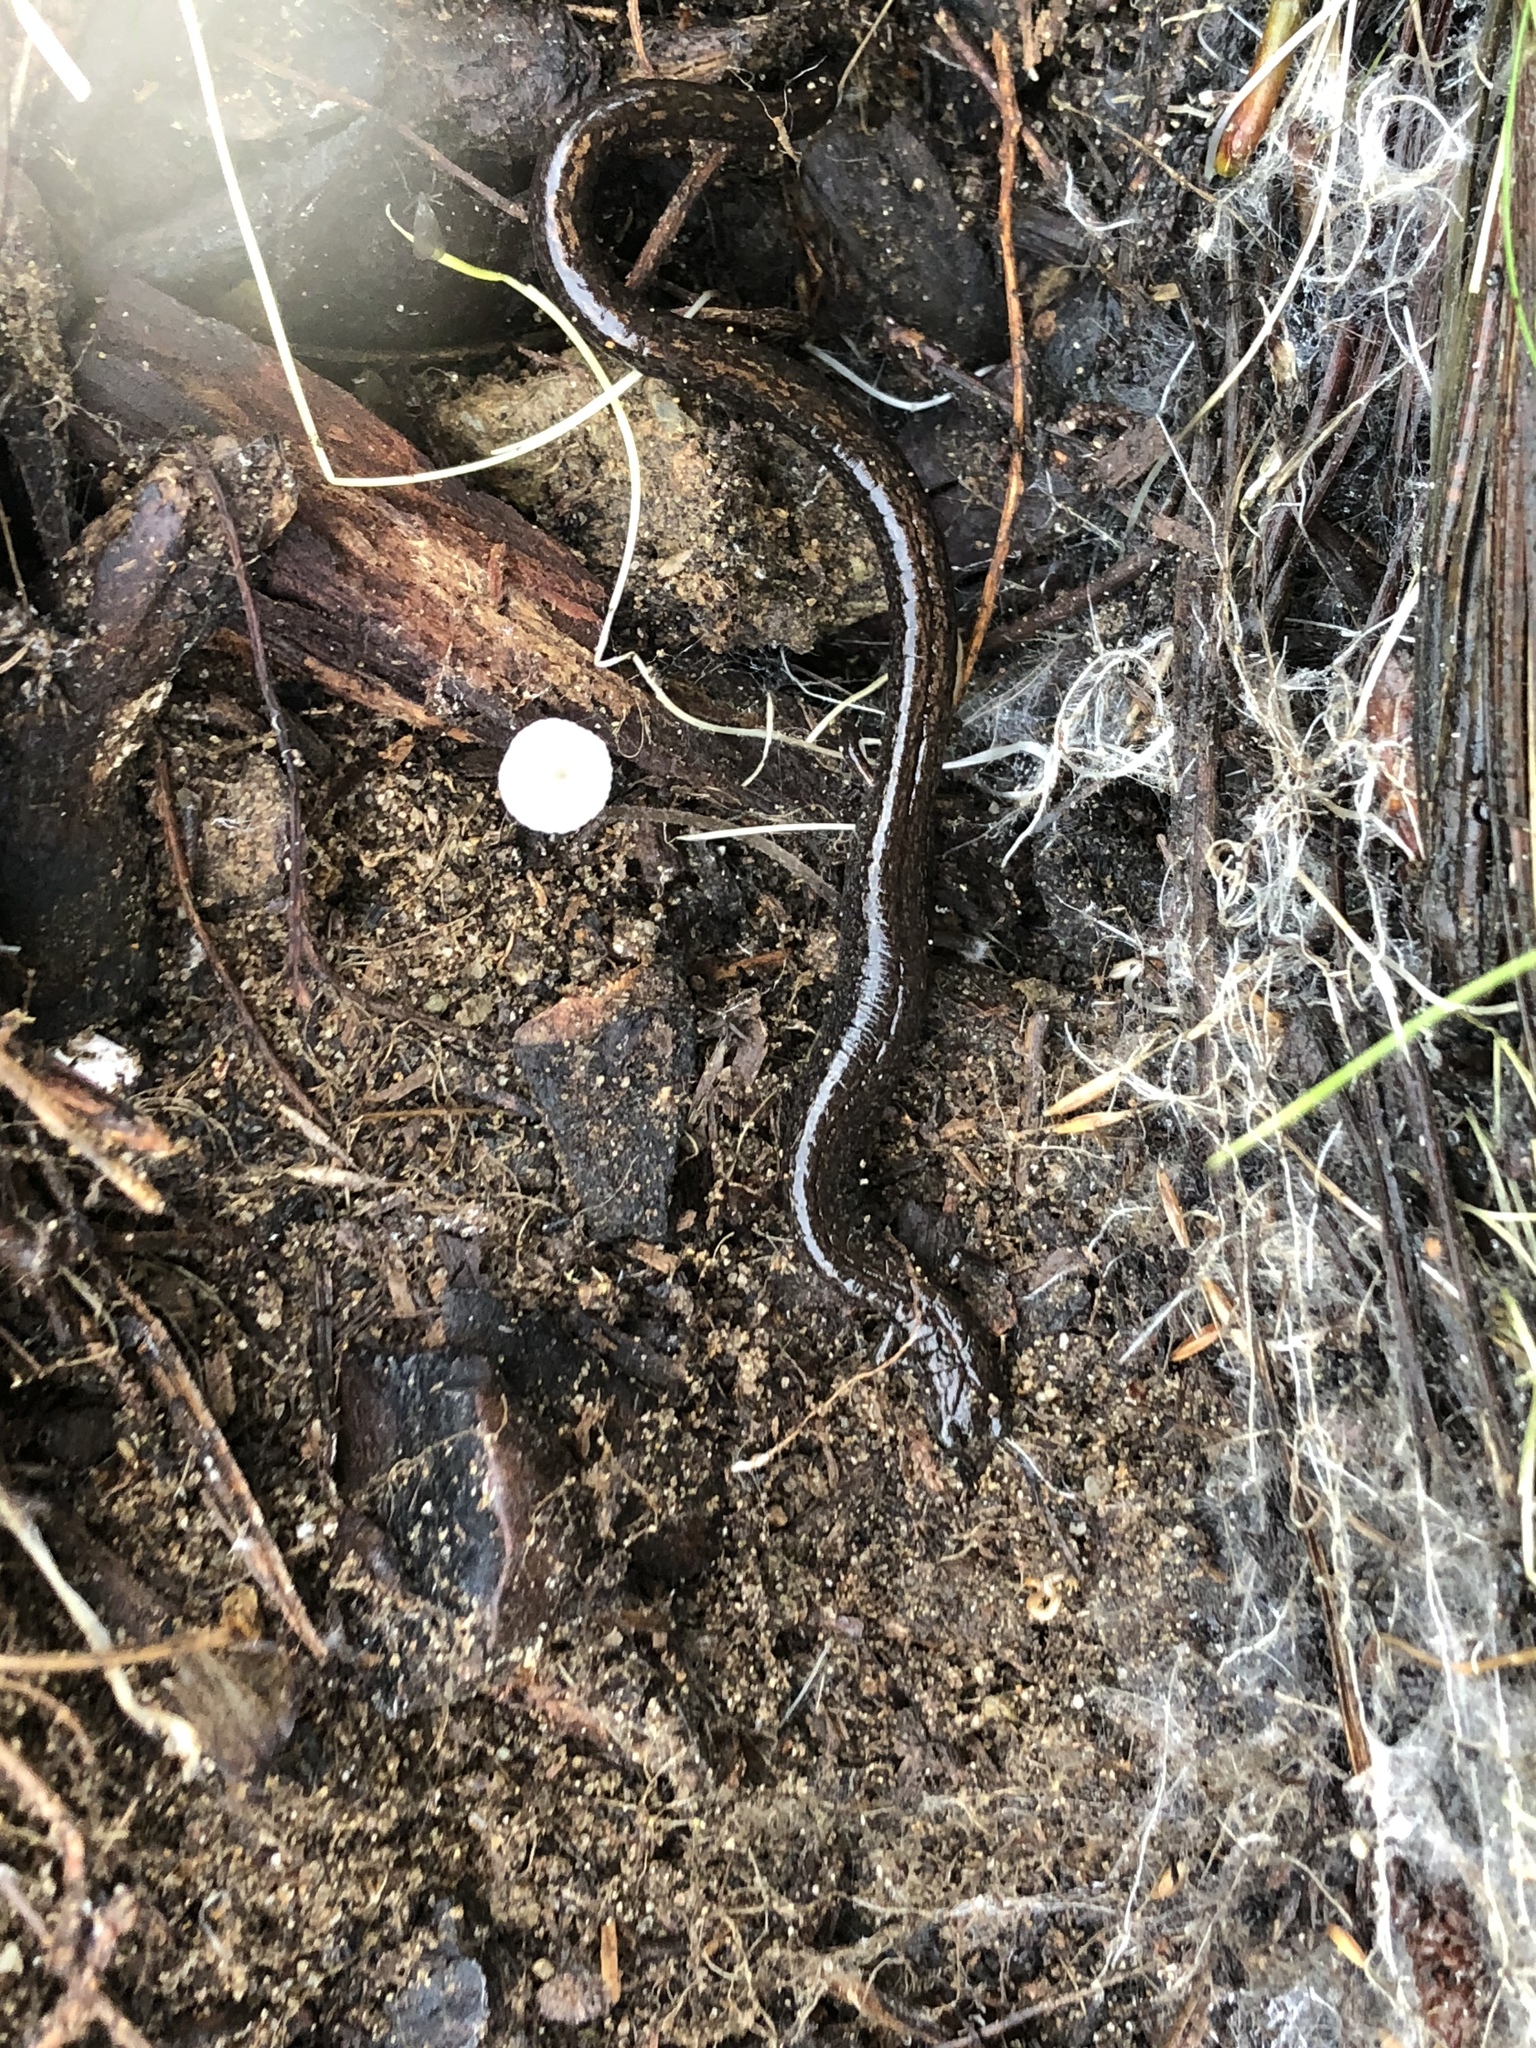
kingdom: Animalia
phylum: Chordata
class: Amphibia
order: Caudata
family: Plethodontidae
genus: Batrachoseps
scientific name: Batrachoseps attenuatus
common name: California slender salamander
